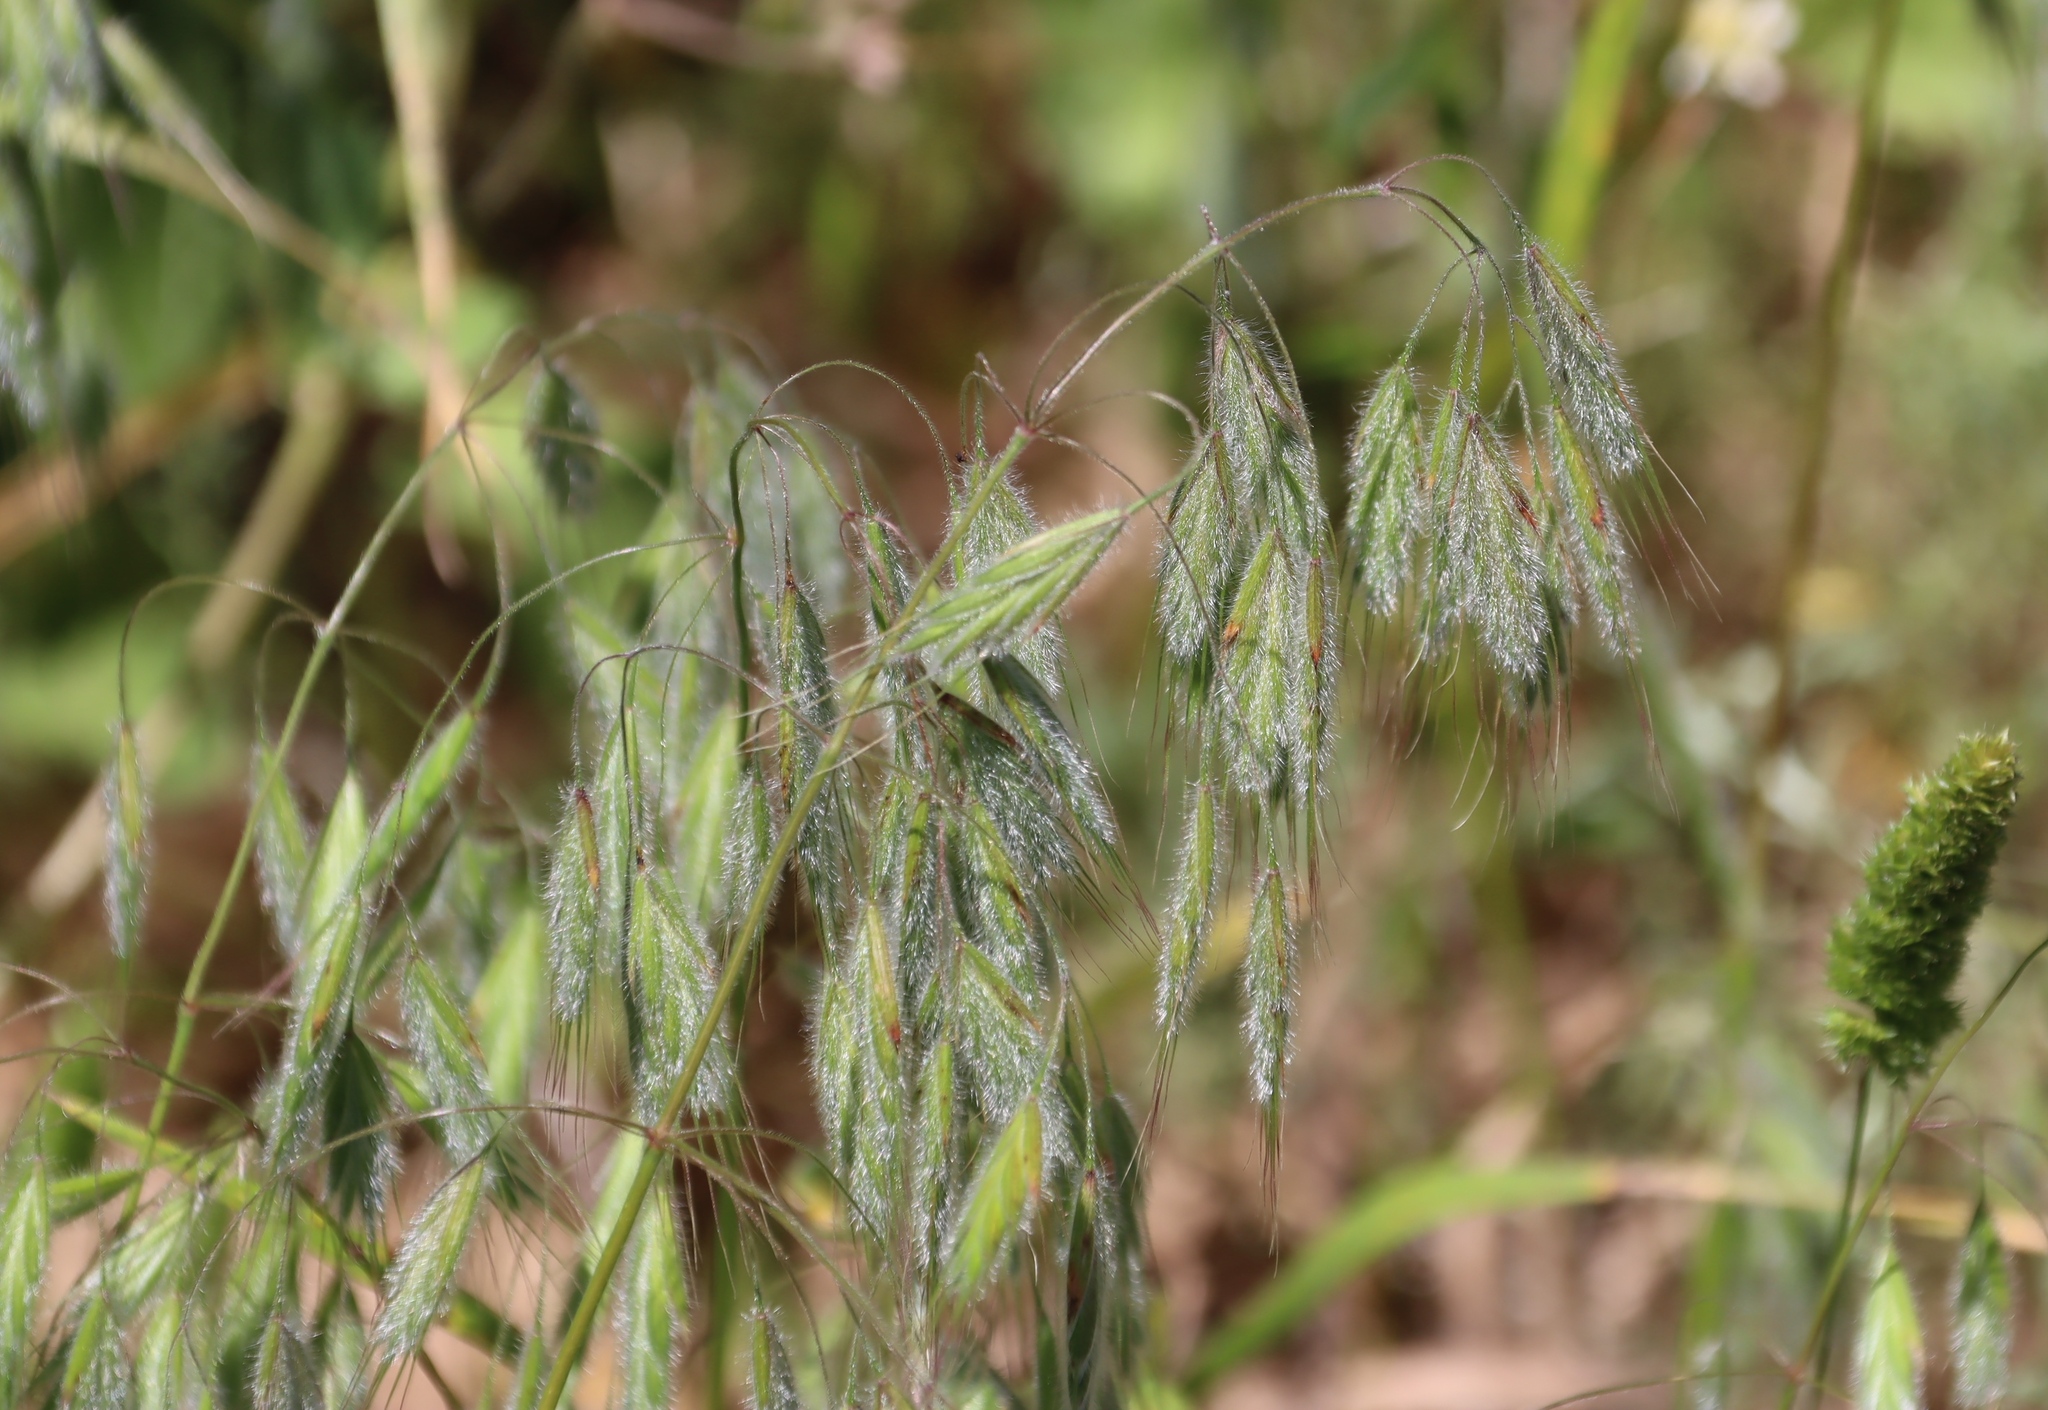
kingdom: Plantae
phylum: Tracheophyta
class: Liliopsida
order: Poales
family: Poaceae
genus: Bromus
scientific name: Bromus pectinatus
